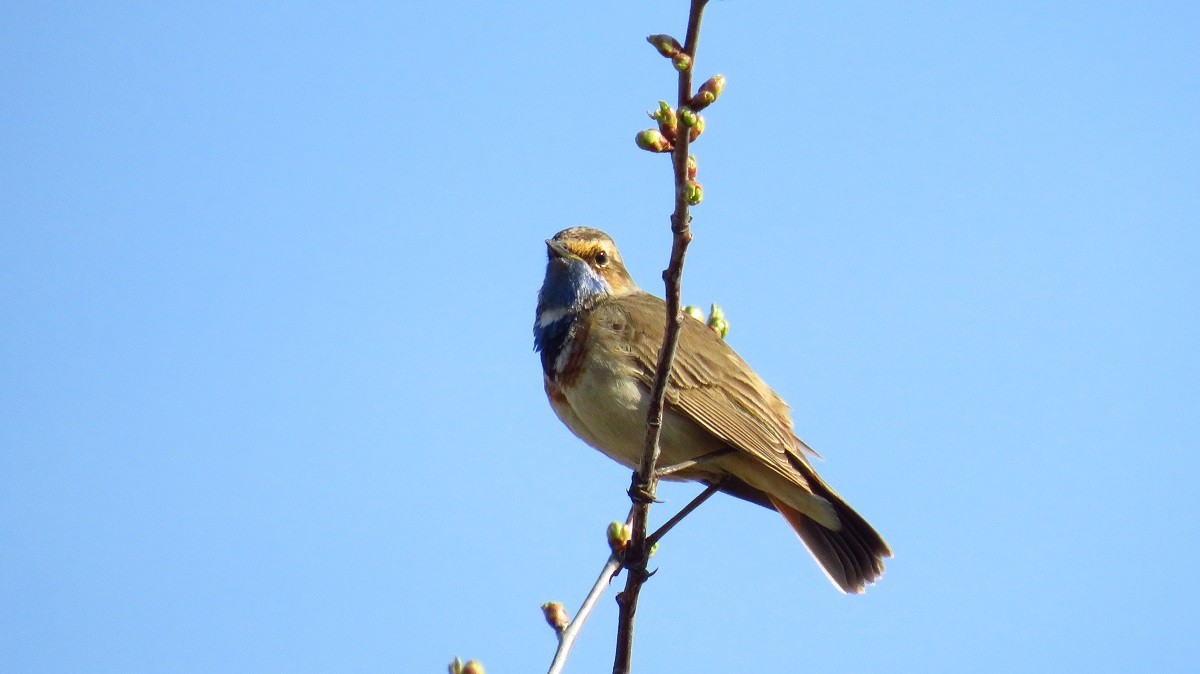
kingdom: Animalia
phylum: Chordata
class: Aves
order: Passeriformes
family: Muscicapidae
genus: Luscinia
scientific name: Luscinia svecica
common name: Bluethroat
